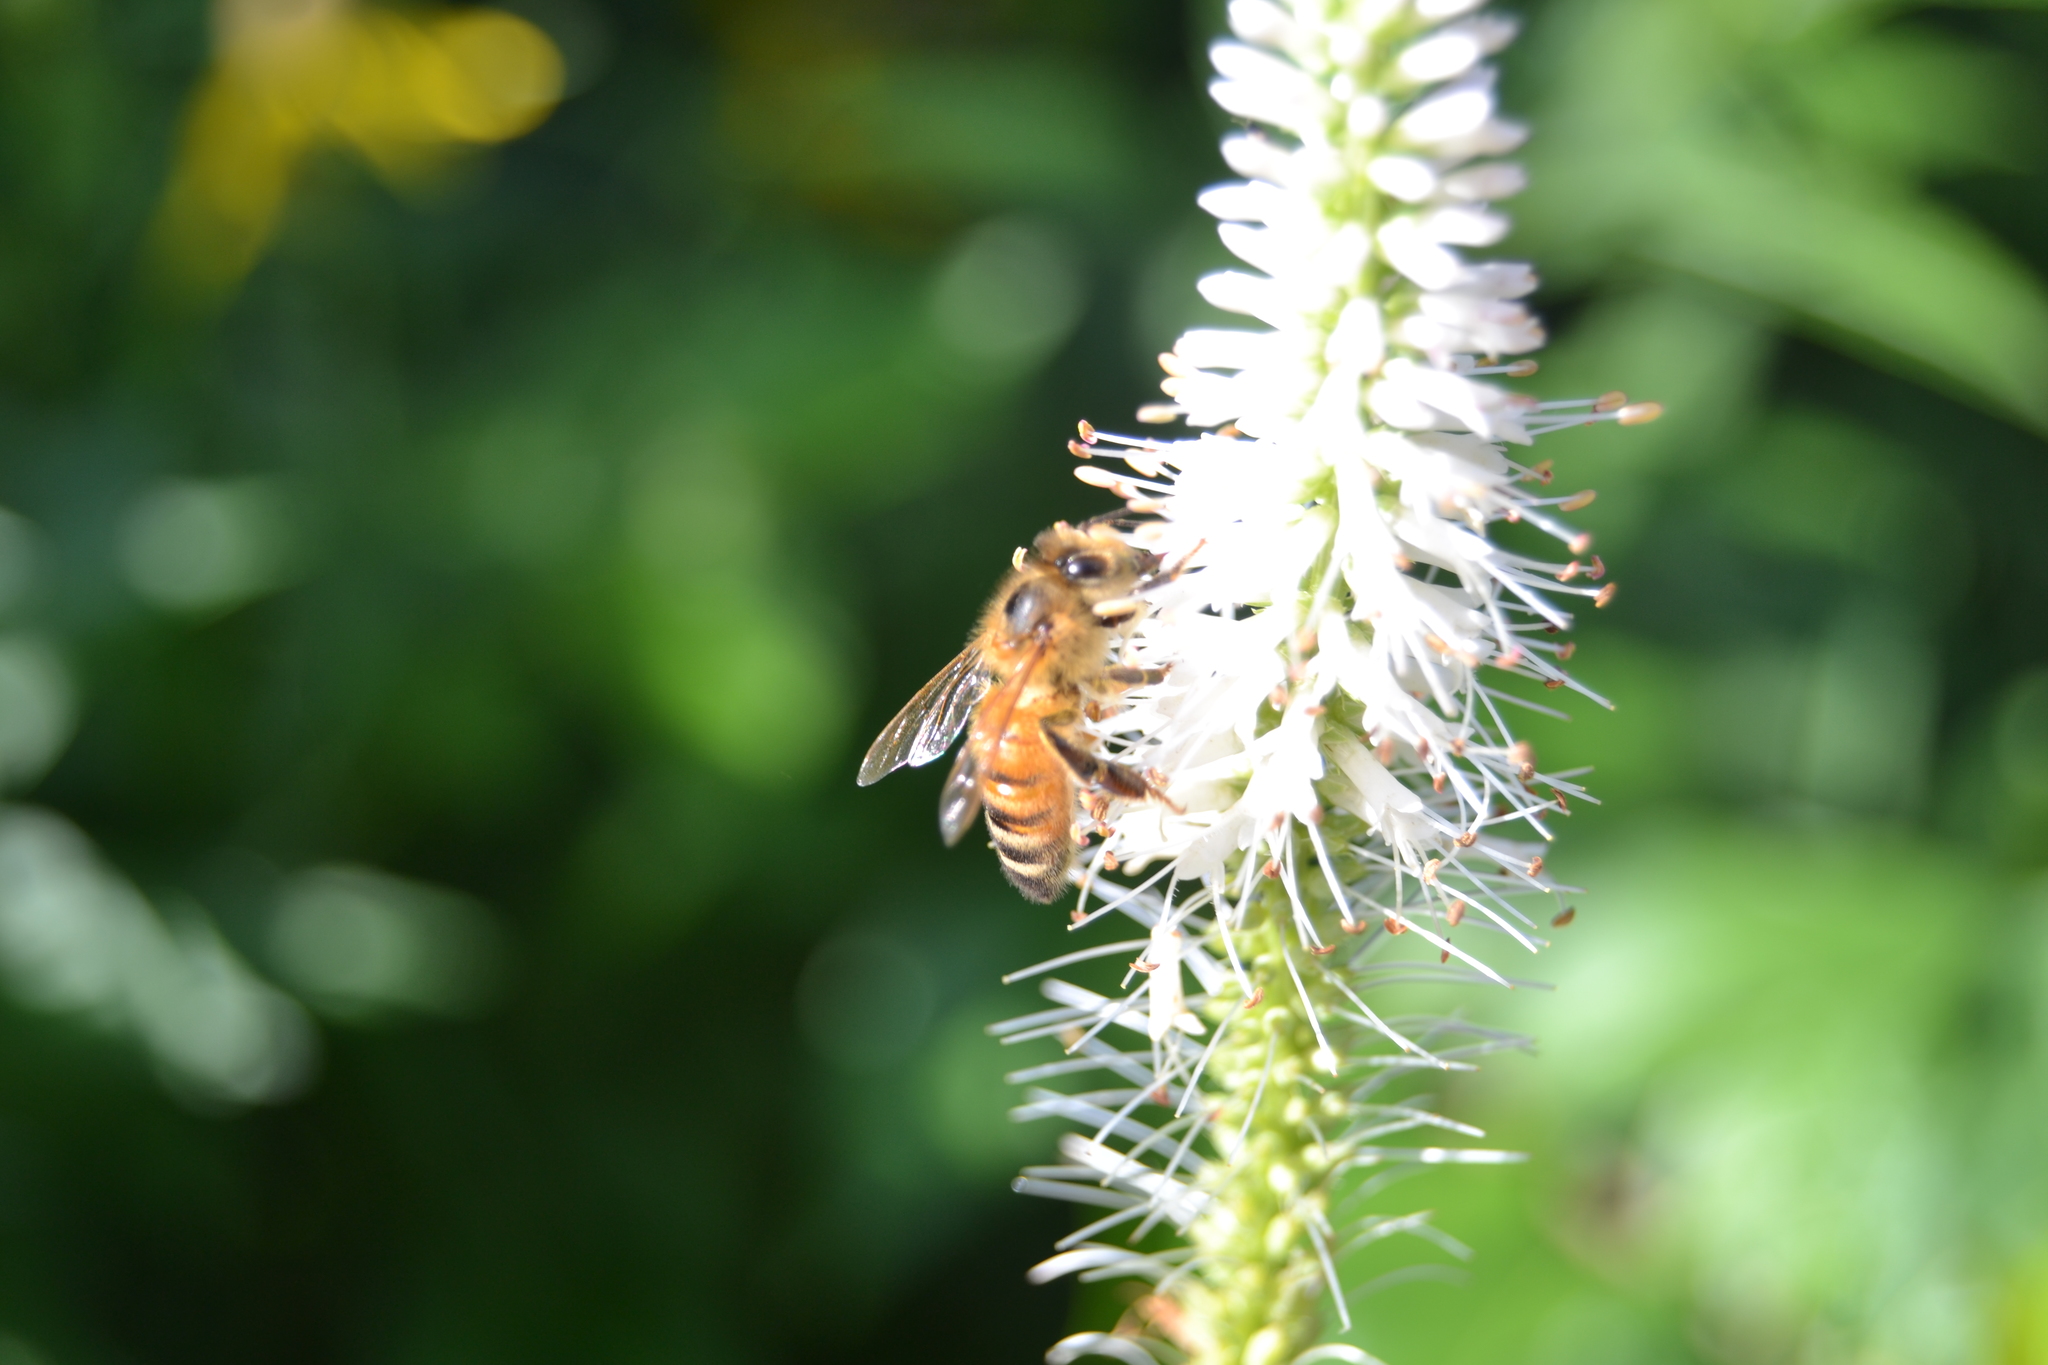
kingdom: Animalia
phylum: Arthropoda
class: Insecta
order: Hymenoptera
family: Apidae
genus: Apis
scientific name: Apis mellifera
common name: Honey bee
